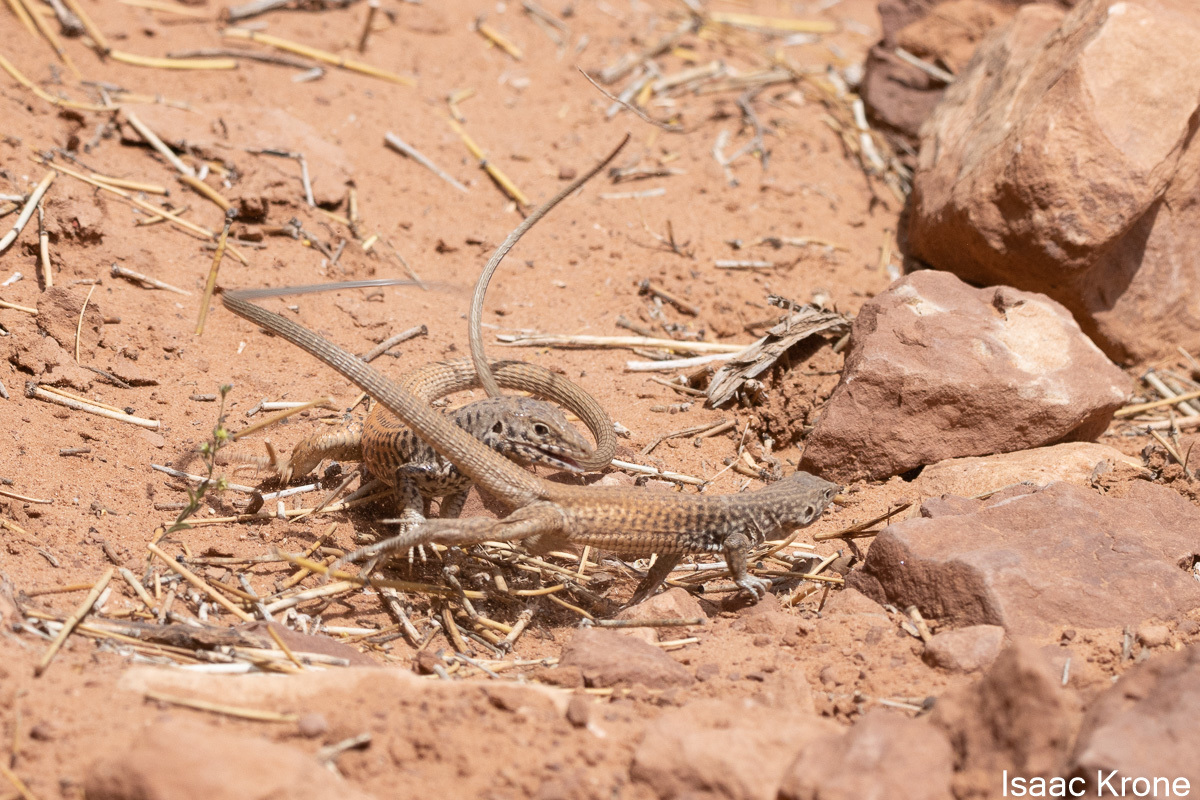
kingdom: Animalia
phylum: Chordata
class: Squamata
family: Teiidae
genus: Aspidoscelis
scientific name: Aspidoscelis tigris
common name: Tiger whiptail
